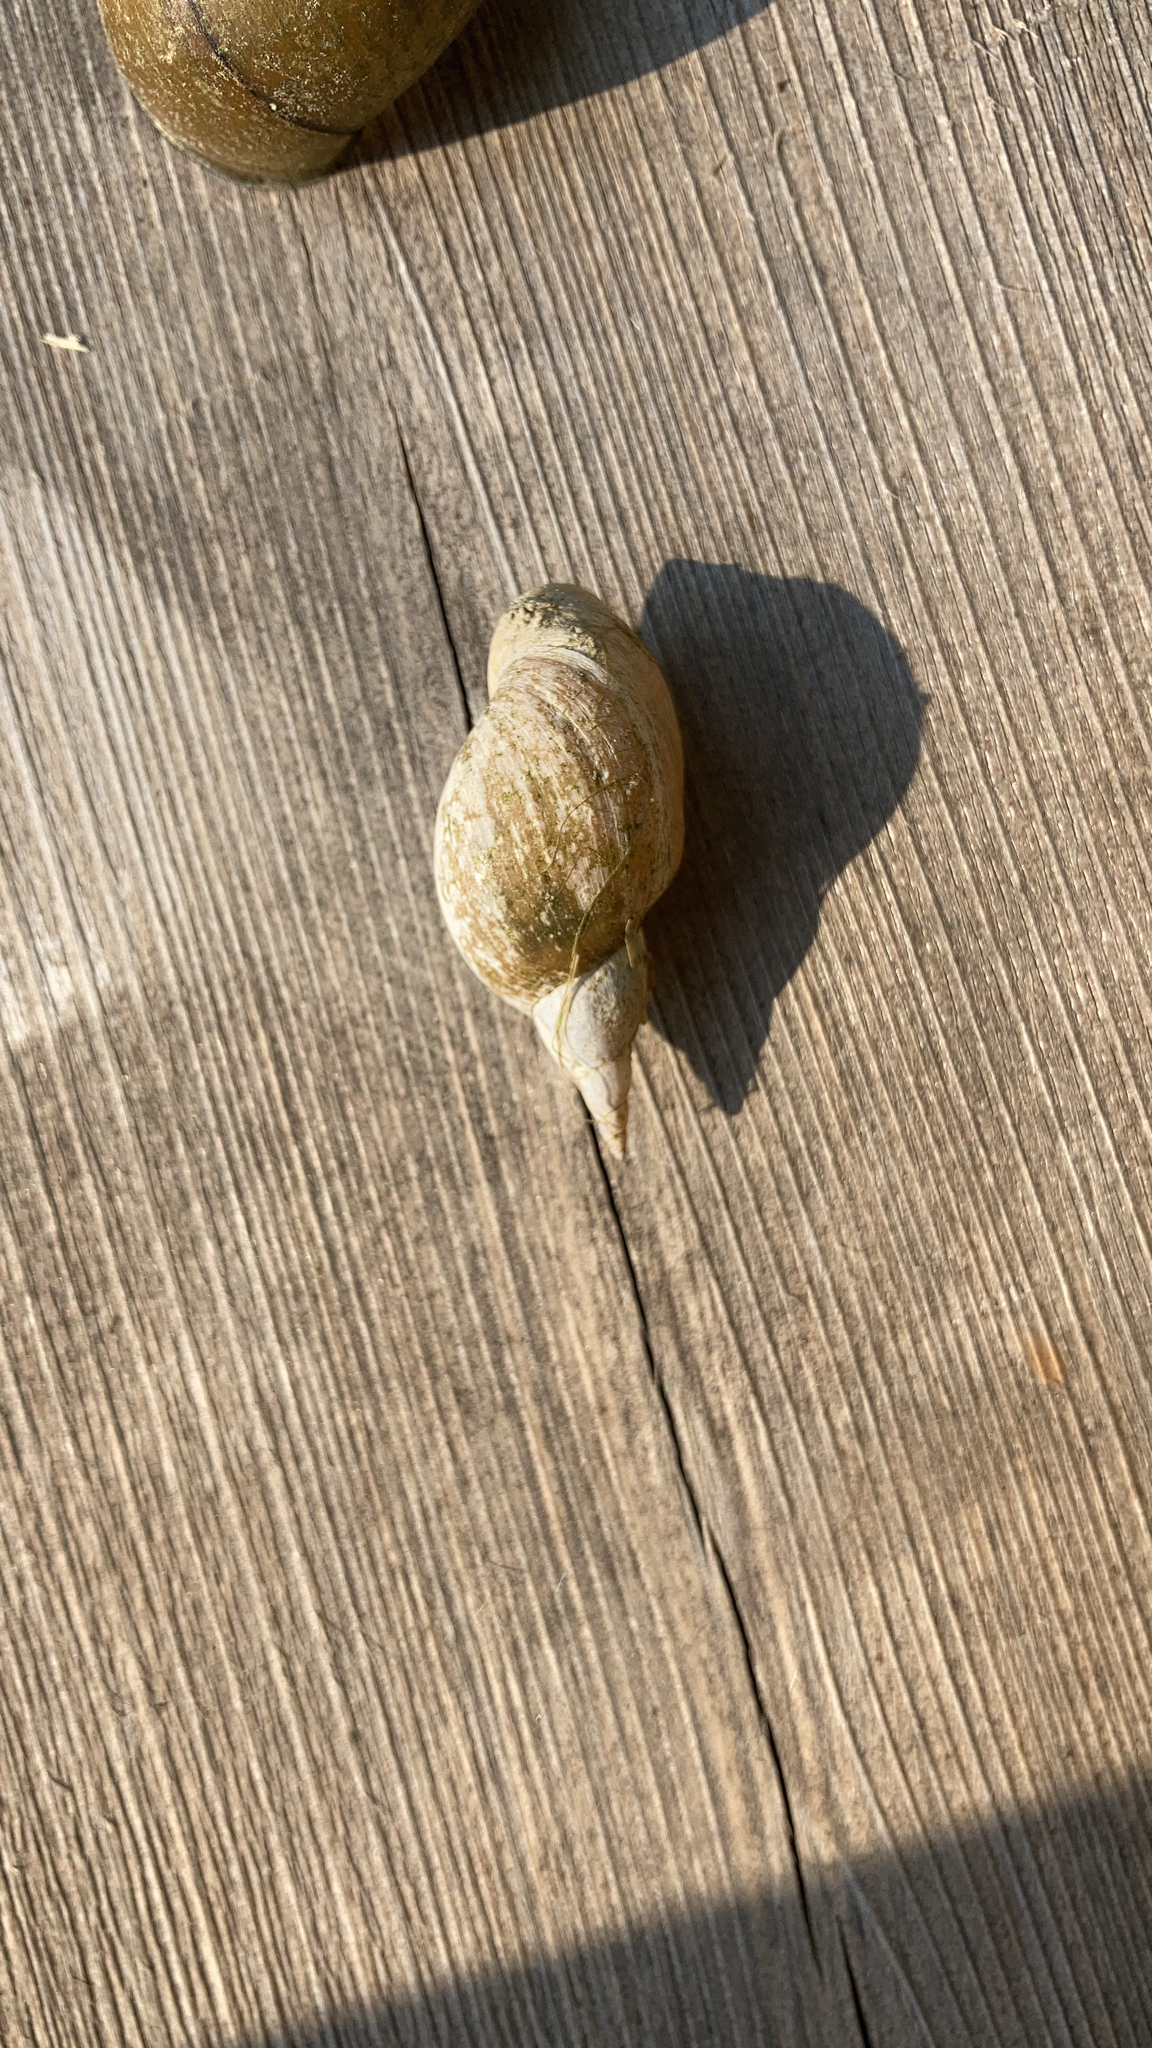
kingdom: Animalia
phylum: Mollusca
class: Gastropoda
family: Lymnaeidae
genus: Lymnaea
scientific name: Lymnaea stagnalis
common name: Great pond snail
